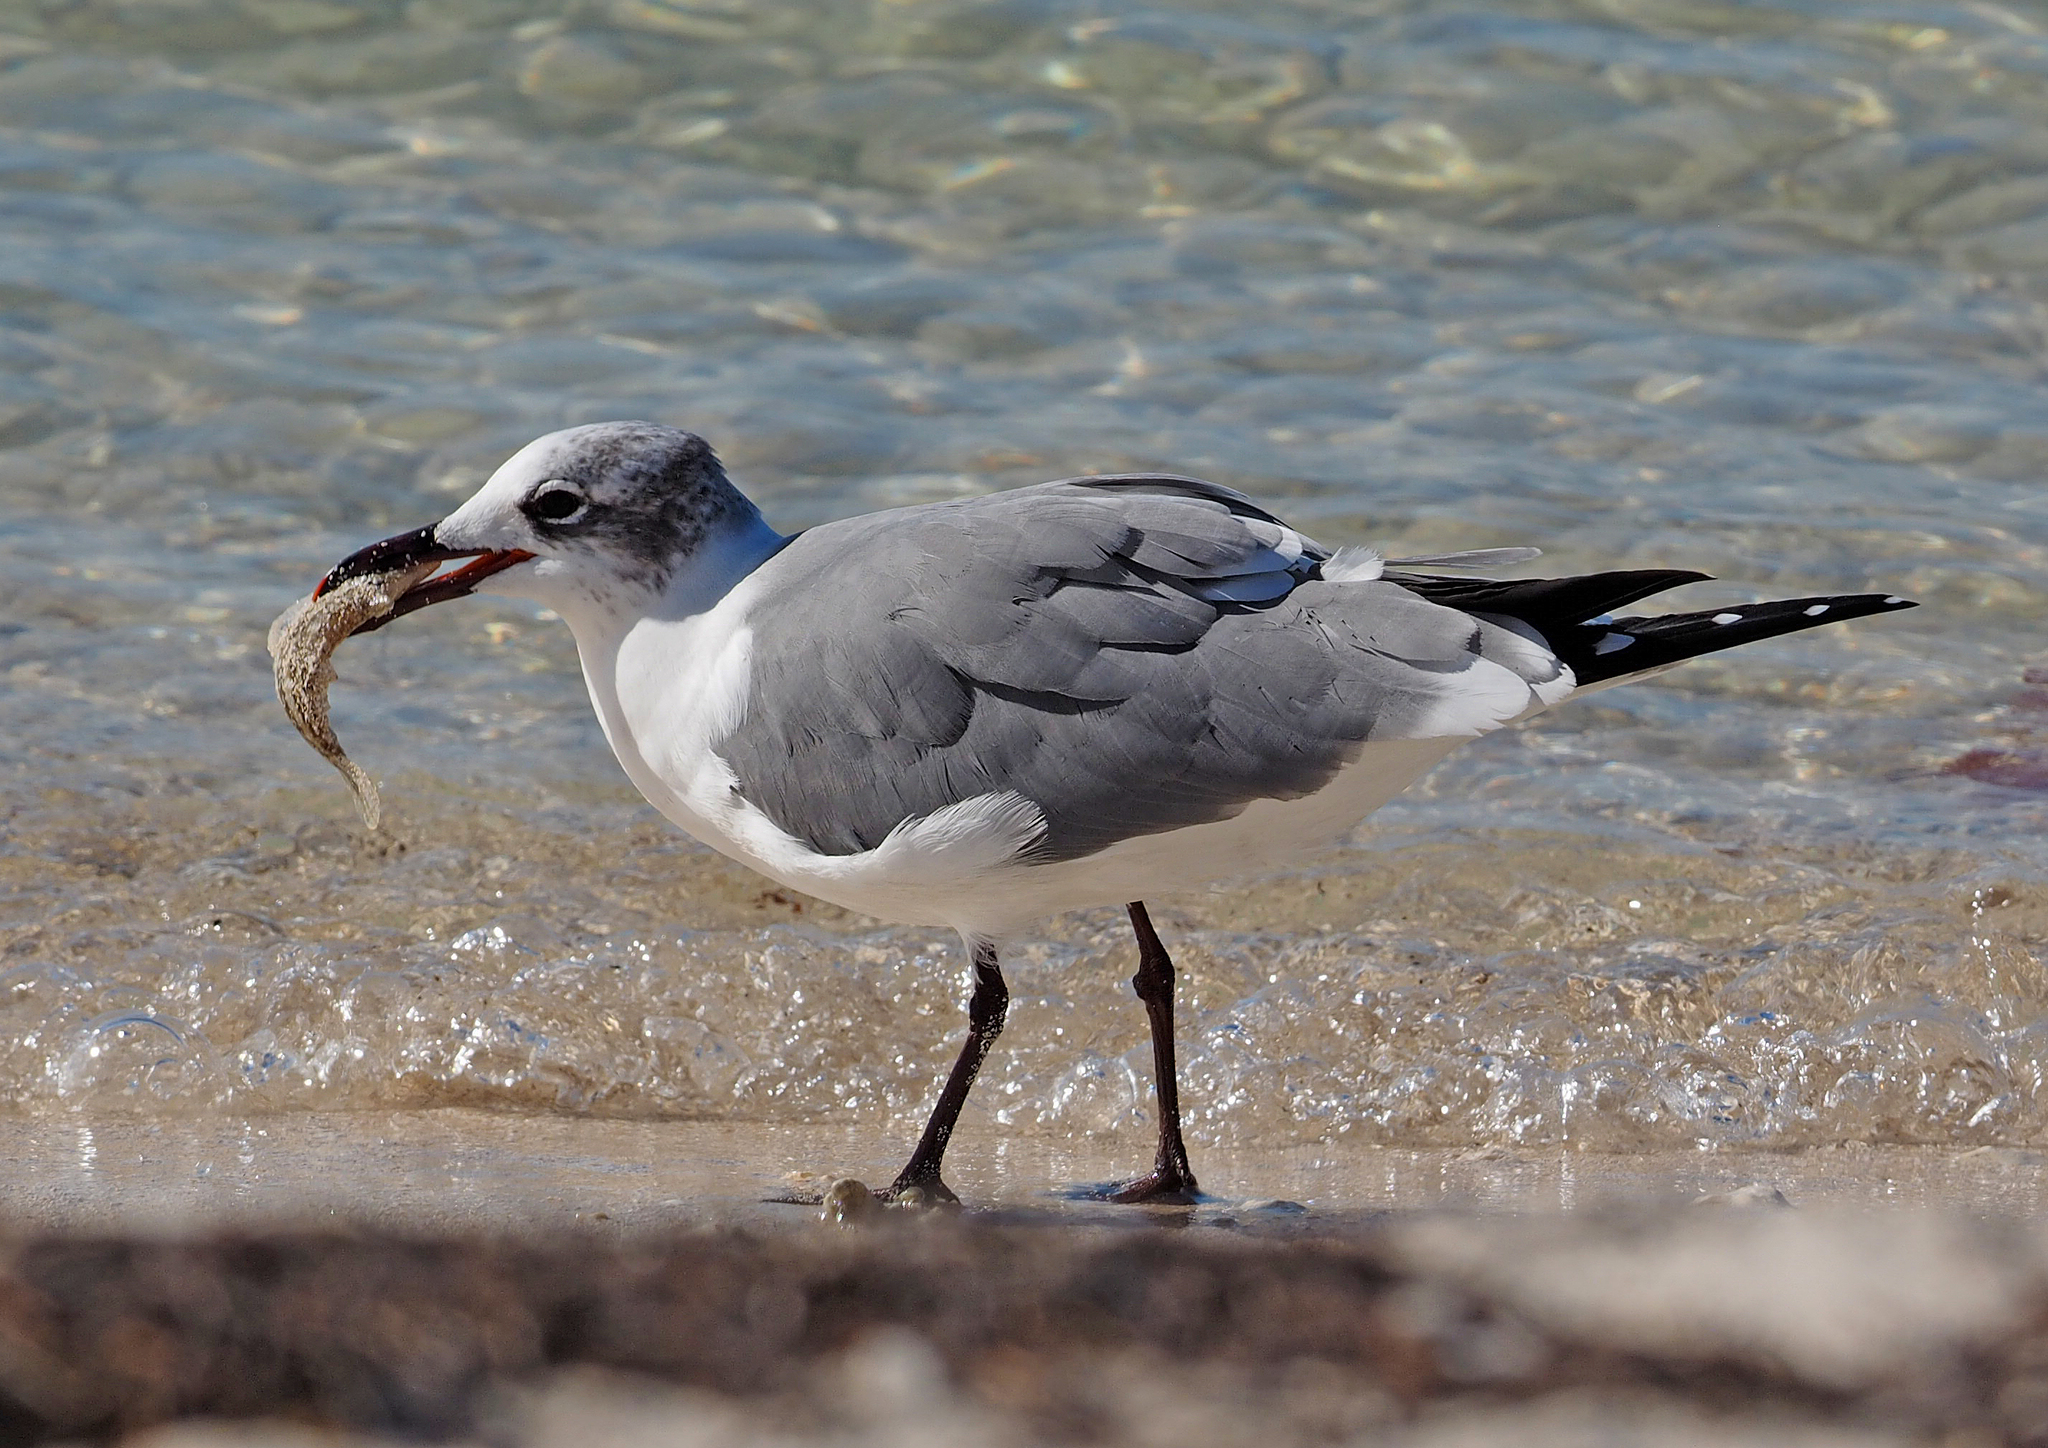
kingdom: Animalia
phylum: Chordata
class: Aves
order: Charadriiformes
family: Laridae
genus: Leucophaeus
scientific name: Leucophaeus atricilla
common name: Laughing gull
